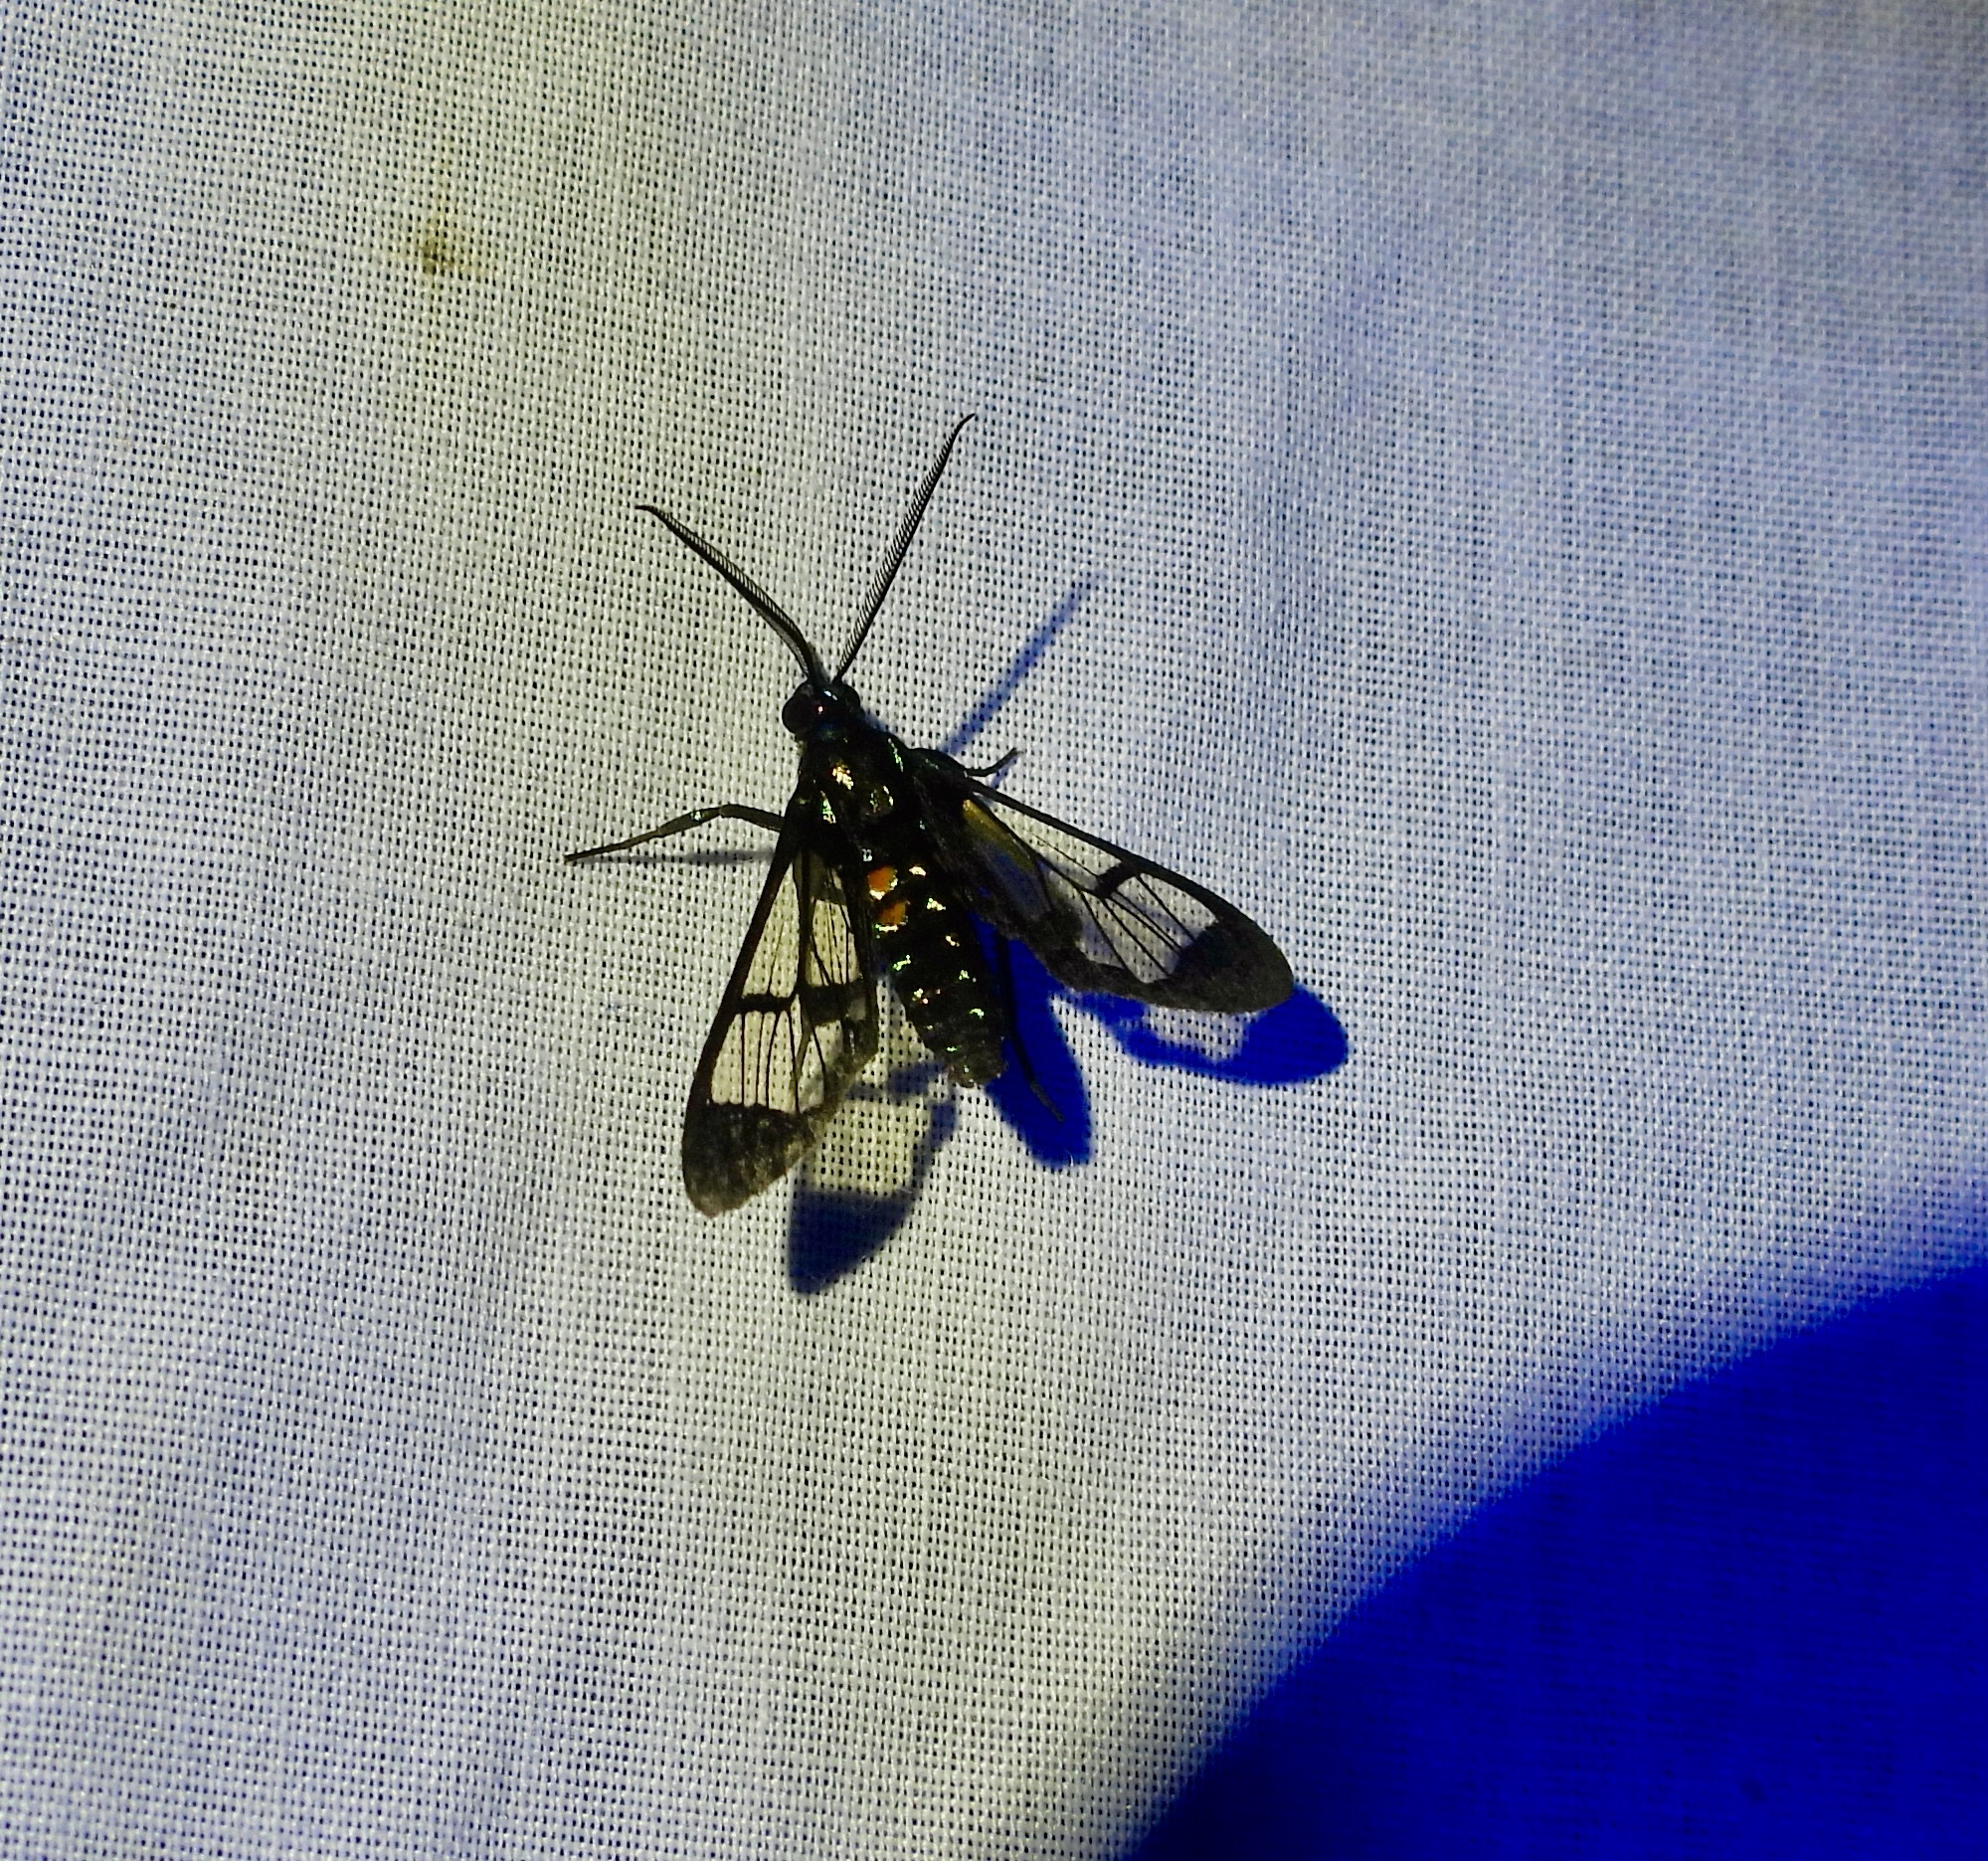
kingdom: Animalia
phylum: Arthropoda
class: Insecta
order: Lepidoptera
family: Erebidae
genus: Cosmosoma
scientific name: Cosmosoma xanthosticta
